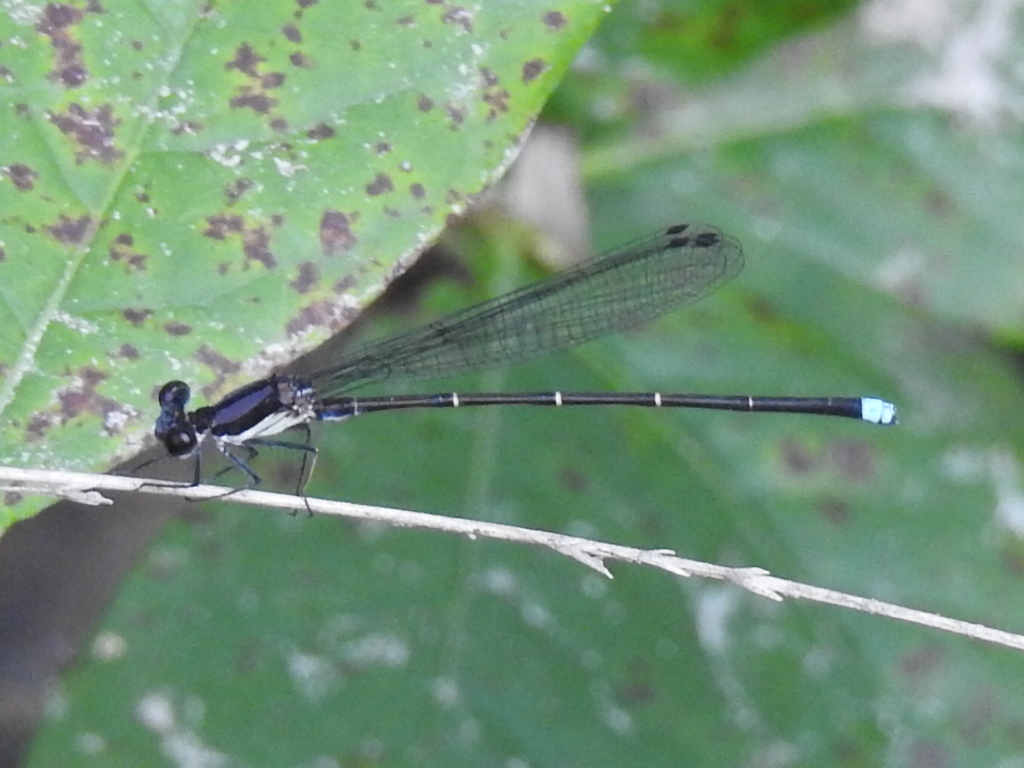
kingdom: Animalia
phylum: Arthropoda
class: Insecta
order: Odonata
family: Coenagrionidae
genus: Argia
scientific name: Argia tibialis
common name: Blue-tipped dancer
